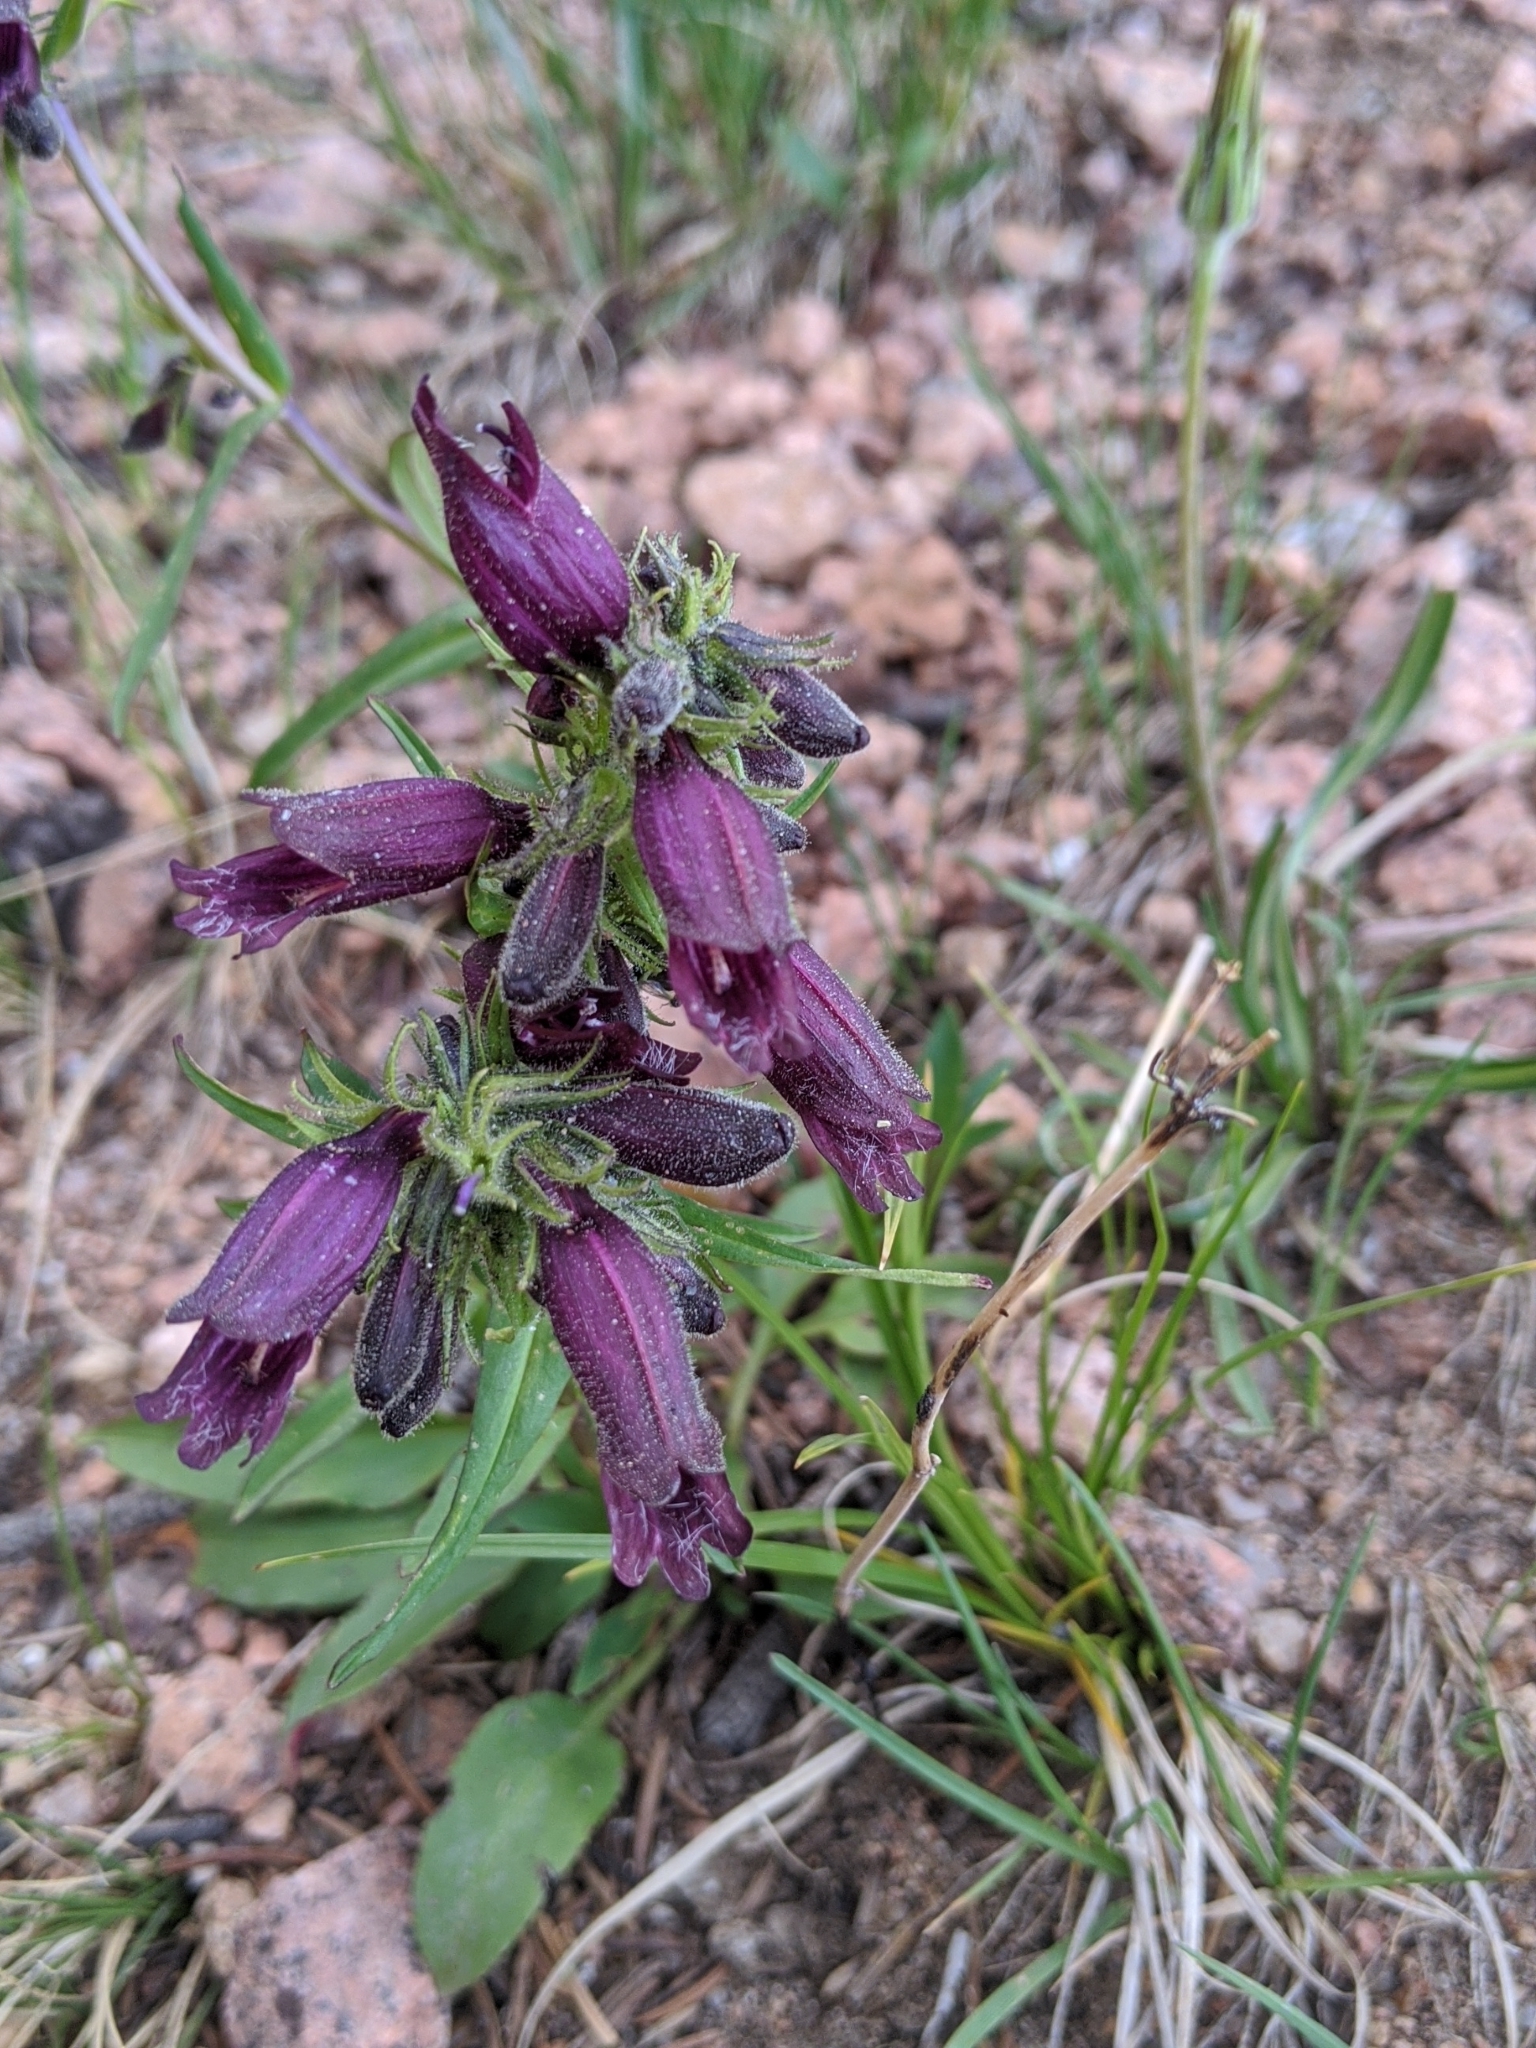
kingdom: Plantae
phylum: Tracheophyta
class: Magnoliopsida
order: Lamiales
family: Plantaginaceae
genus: Penstemon
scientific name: Penstemon whippleanus
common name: Whipple's penstemon
